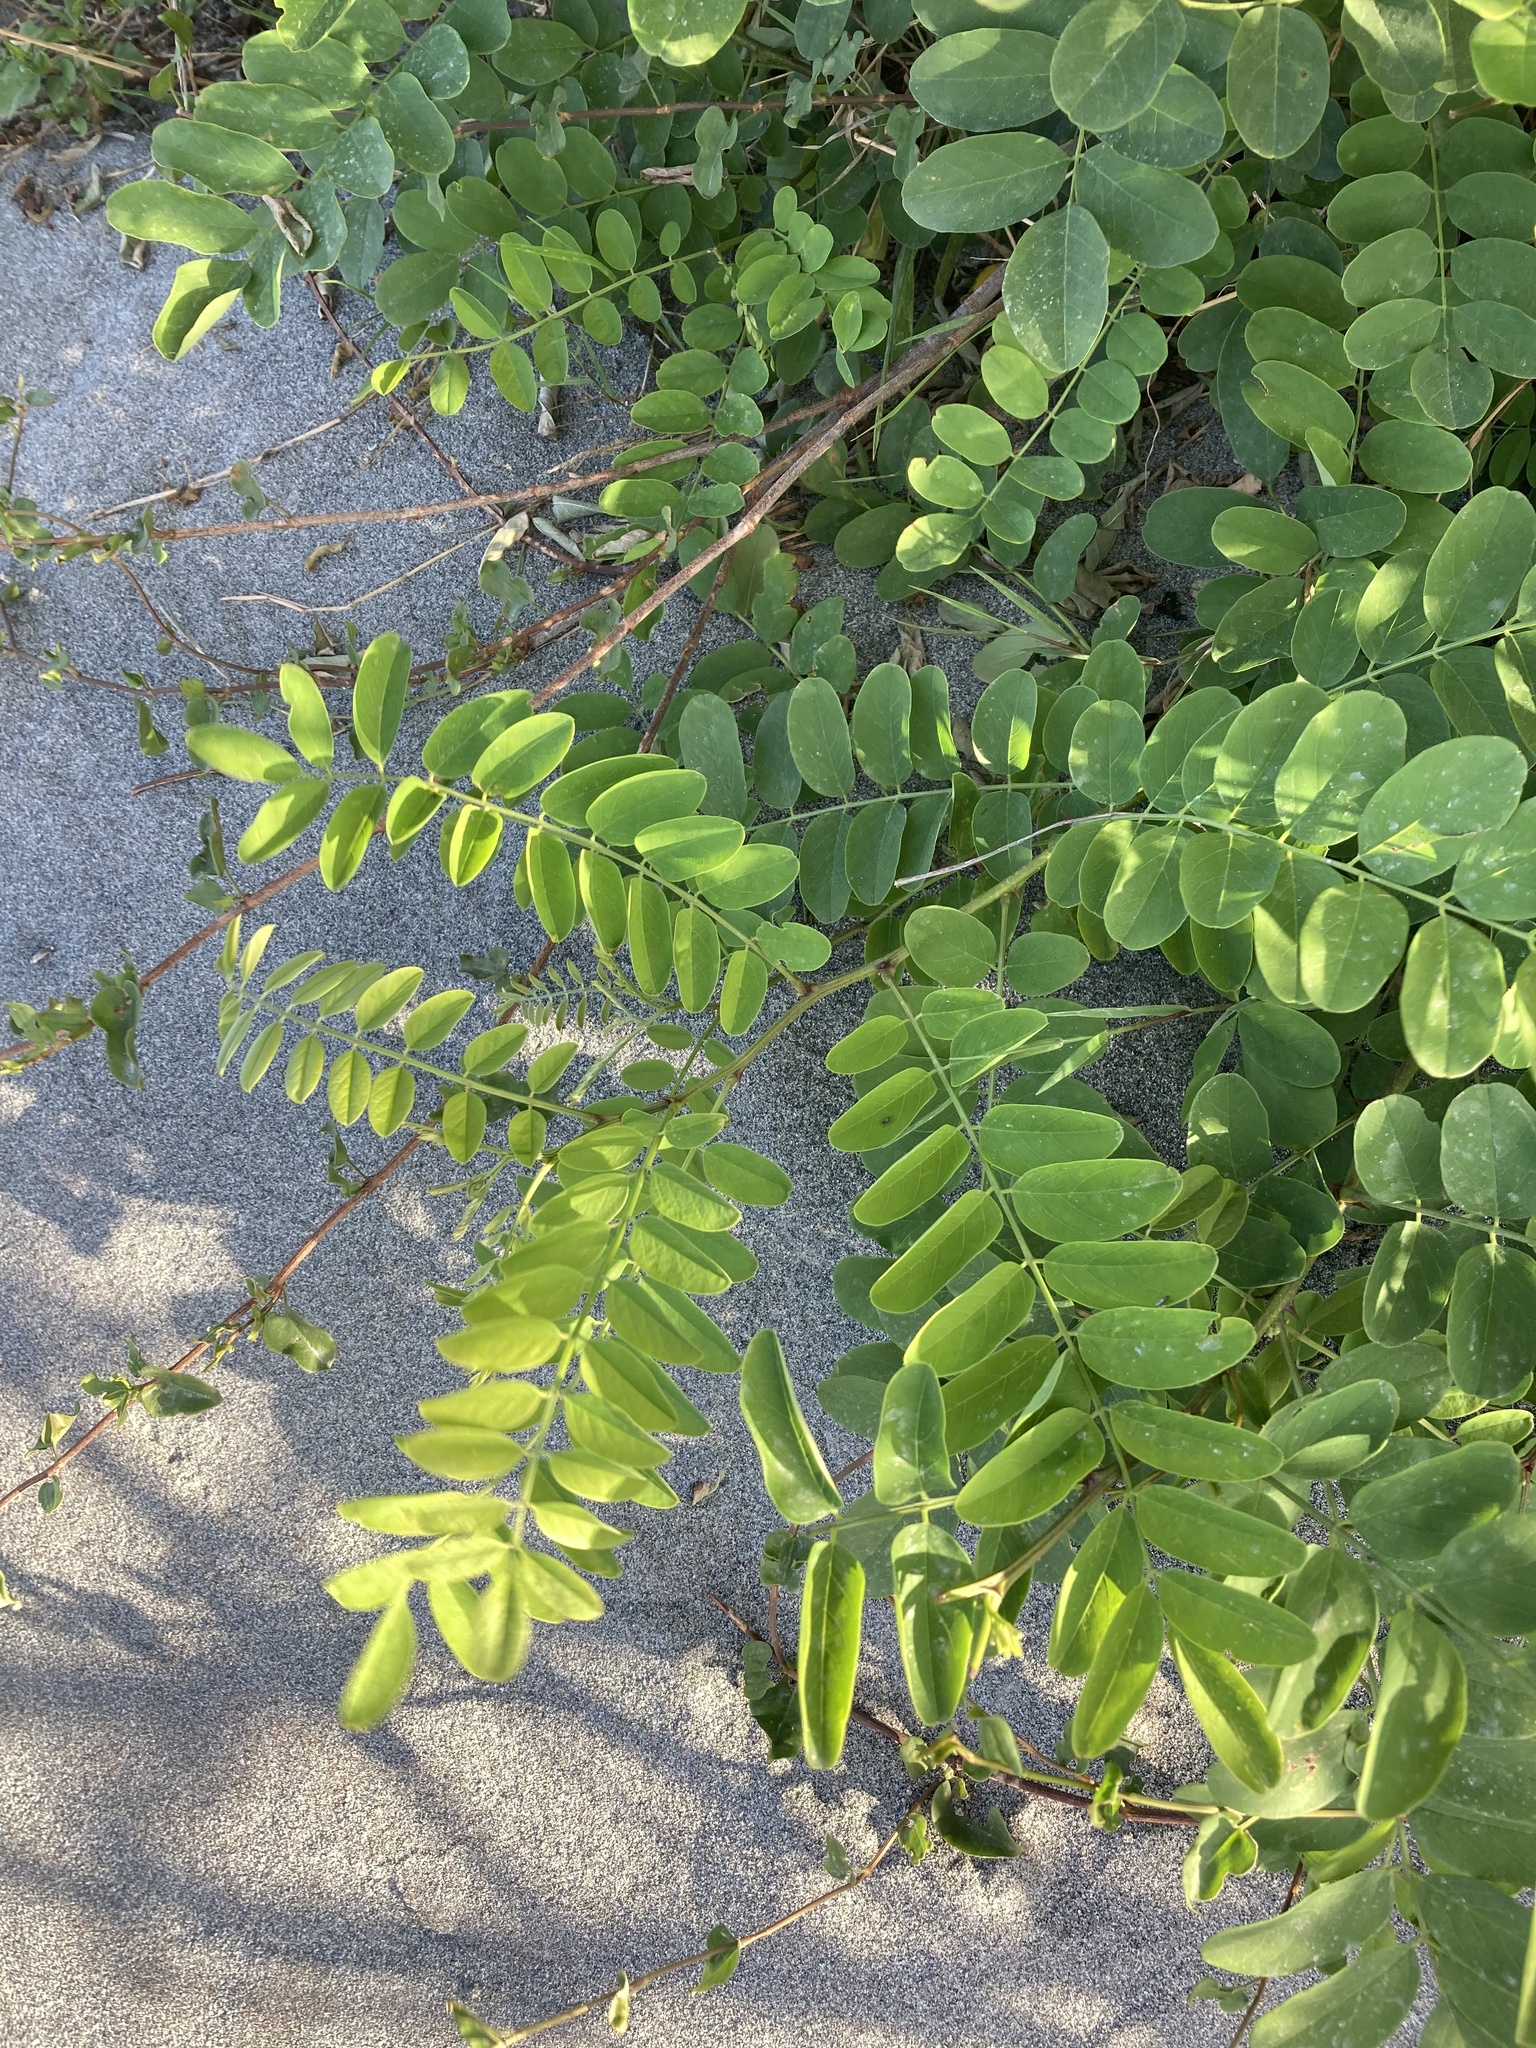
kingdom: Plantae
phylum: Tracheophyta
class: Magnoliopsida
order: Fabales
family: Fabaceae
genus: Robinia
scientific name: Robinia pseudoacacia
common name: Black locust
